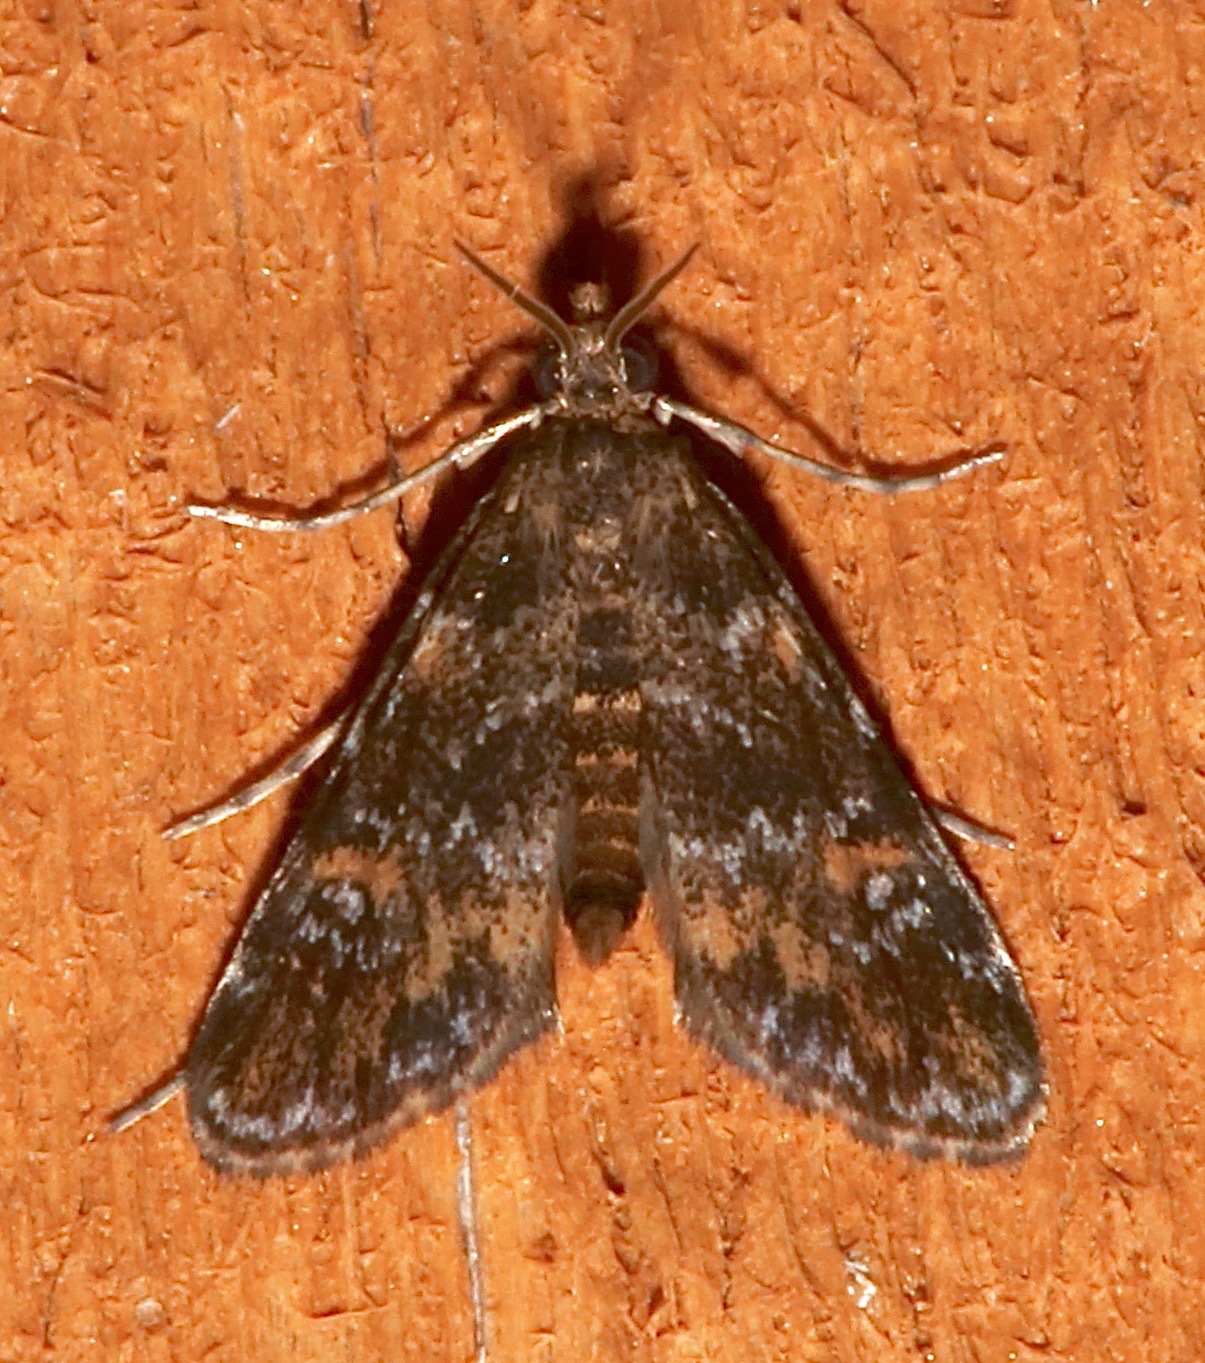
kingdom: Animalia
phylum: Arthropoda
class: Insecta
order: Lepidoptera
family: Crambidae
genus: Elophila
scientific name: Elophila obliteralis
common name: Waterlily leafcutter moth
